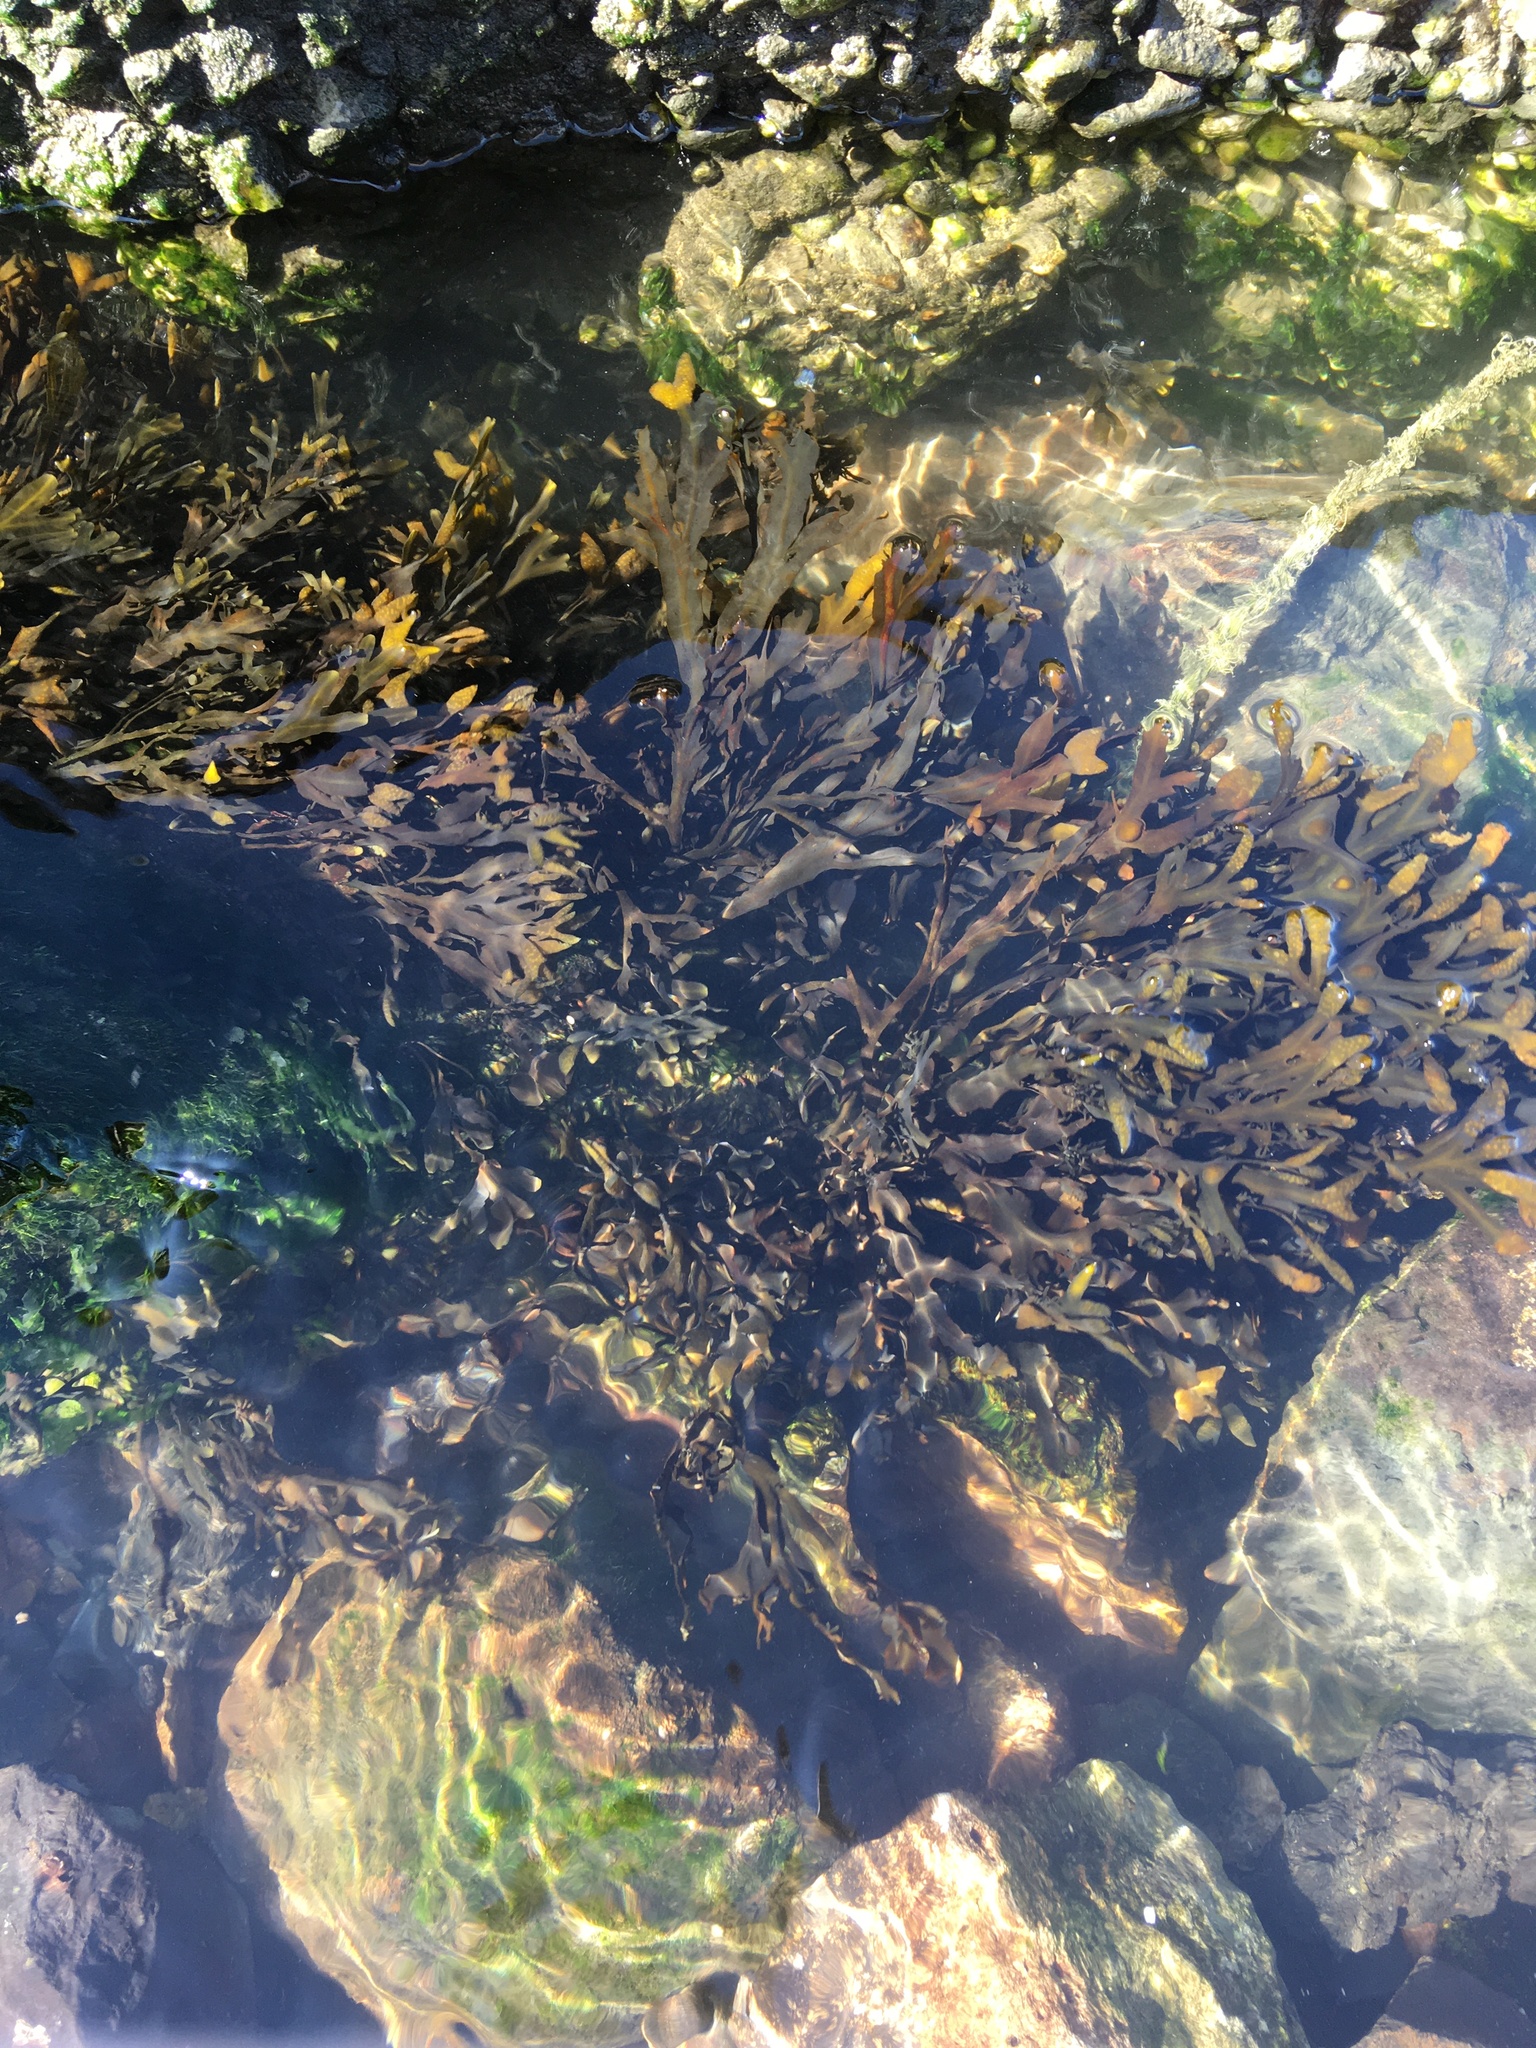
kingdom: Chromista
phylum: Ochrophyta
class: Phaeophyceae
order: Fucales
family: Fucaceae
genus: Fucus
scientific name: Fucus vesiculosus
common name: Bladder wrack
